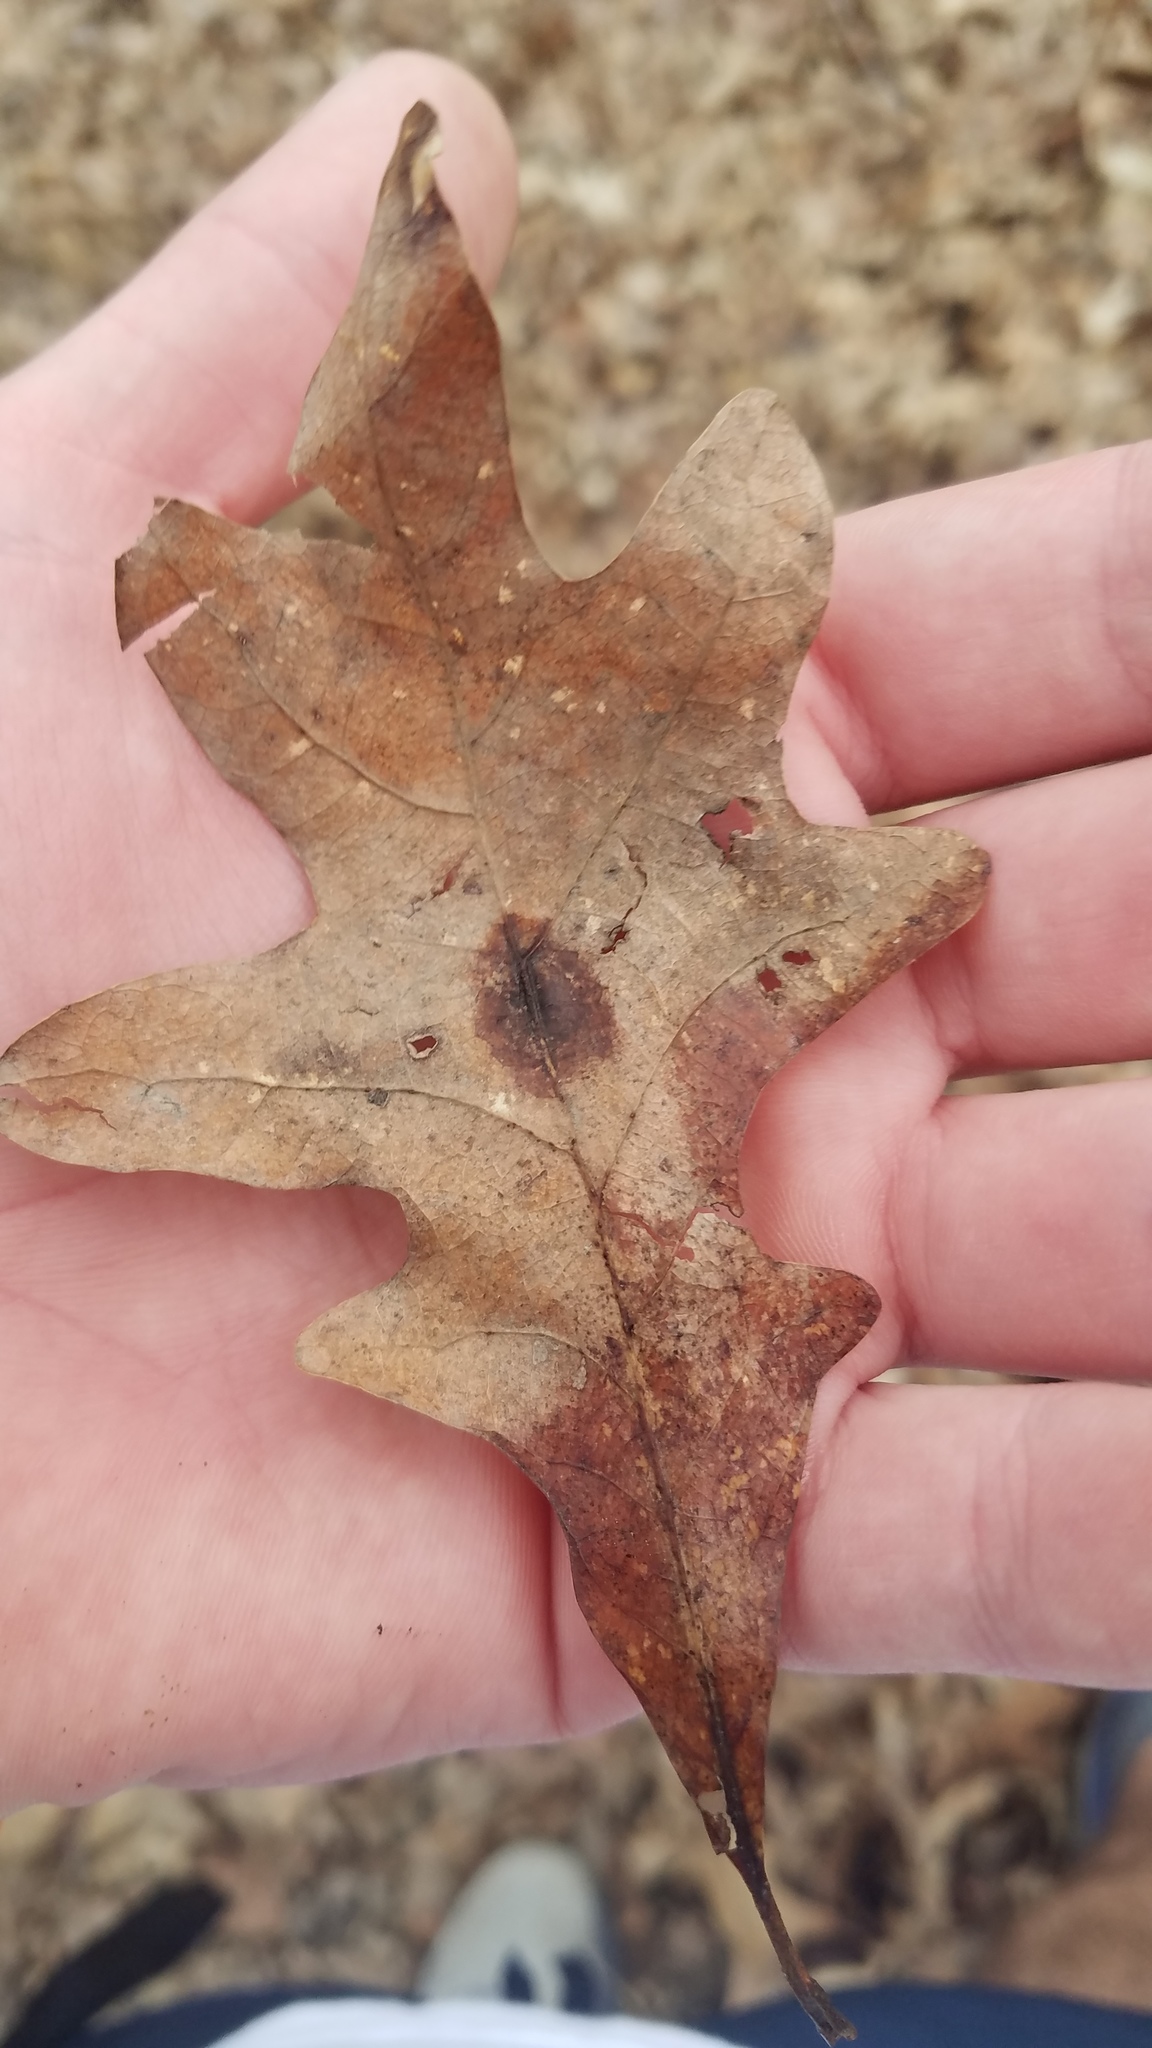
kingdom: Animalia
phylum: Arthropoda
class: Insecta
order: Hymenoptera
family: Cynipidae
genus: Andricus
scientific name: Andricus quercusflocci
